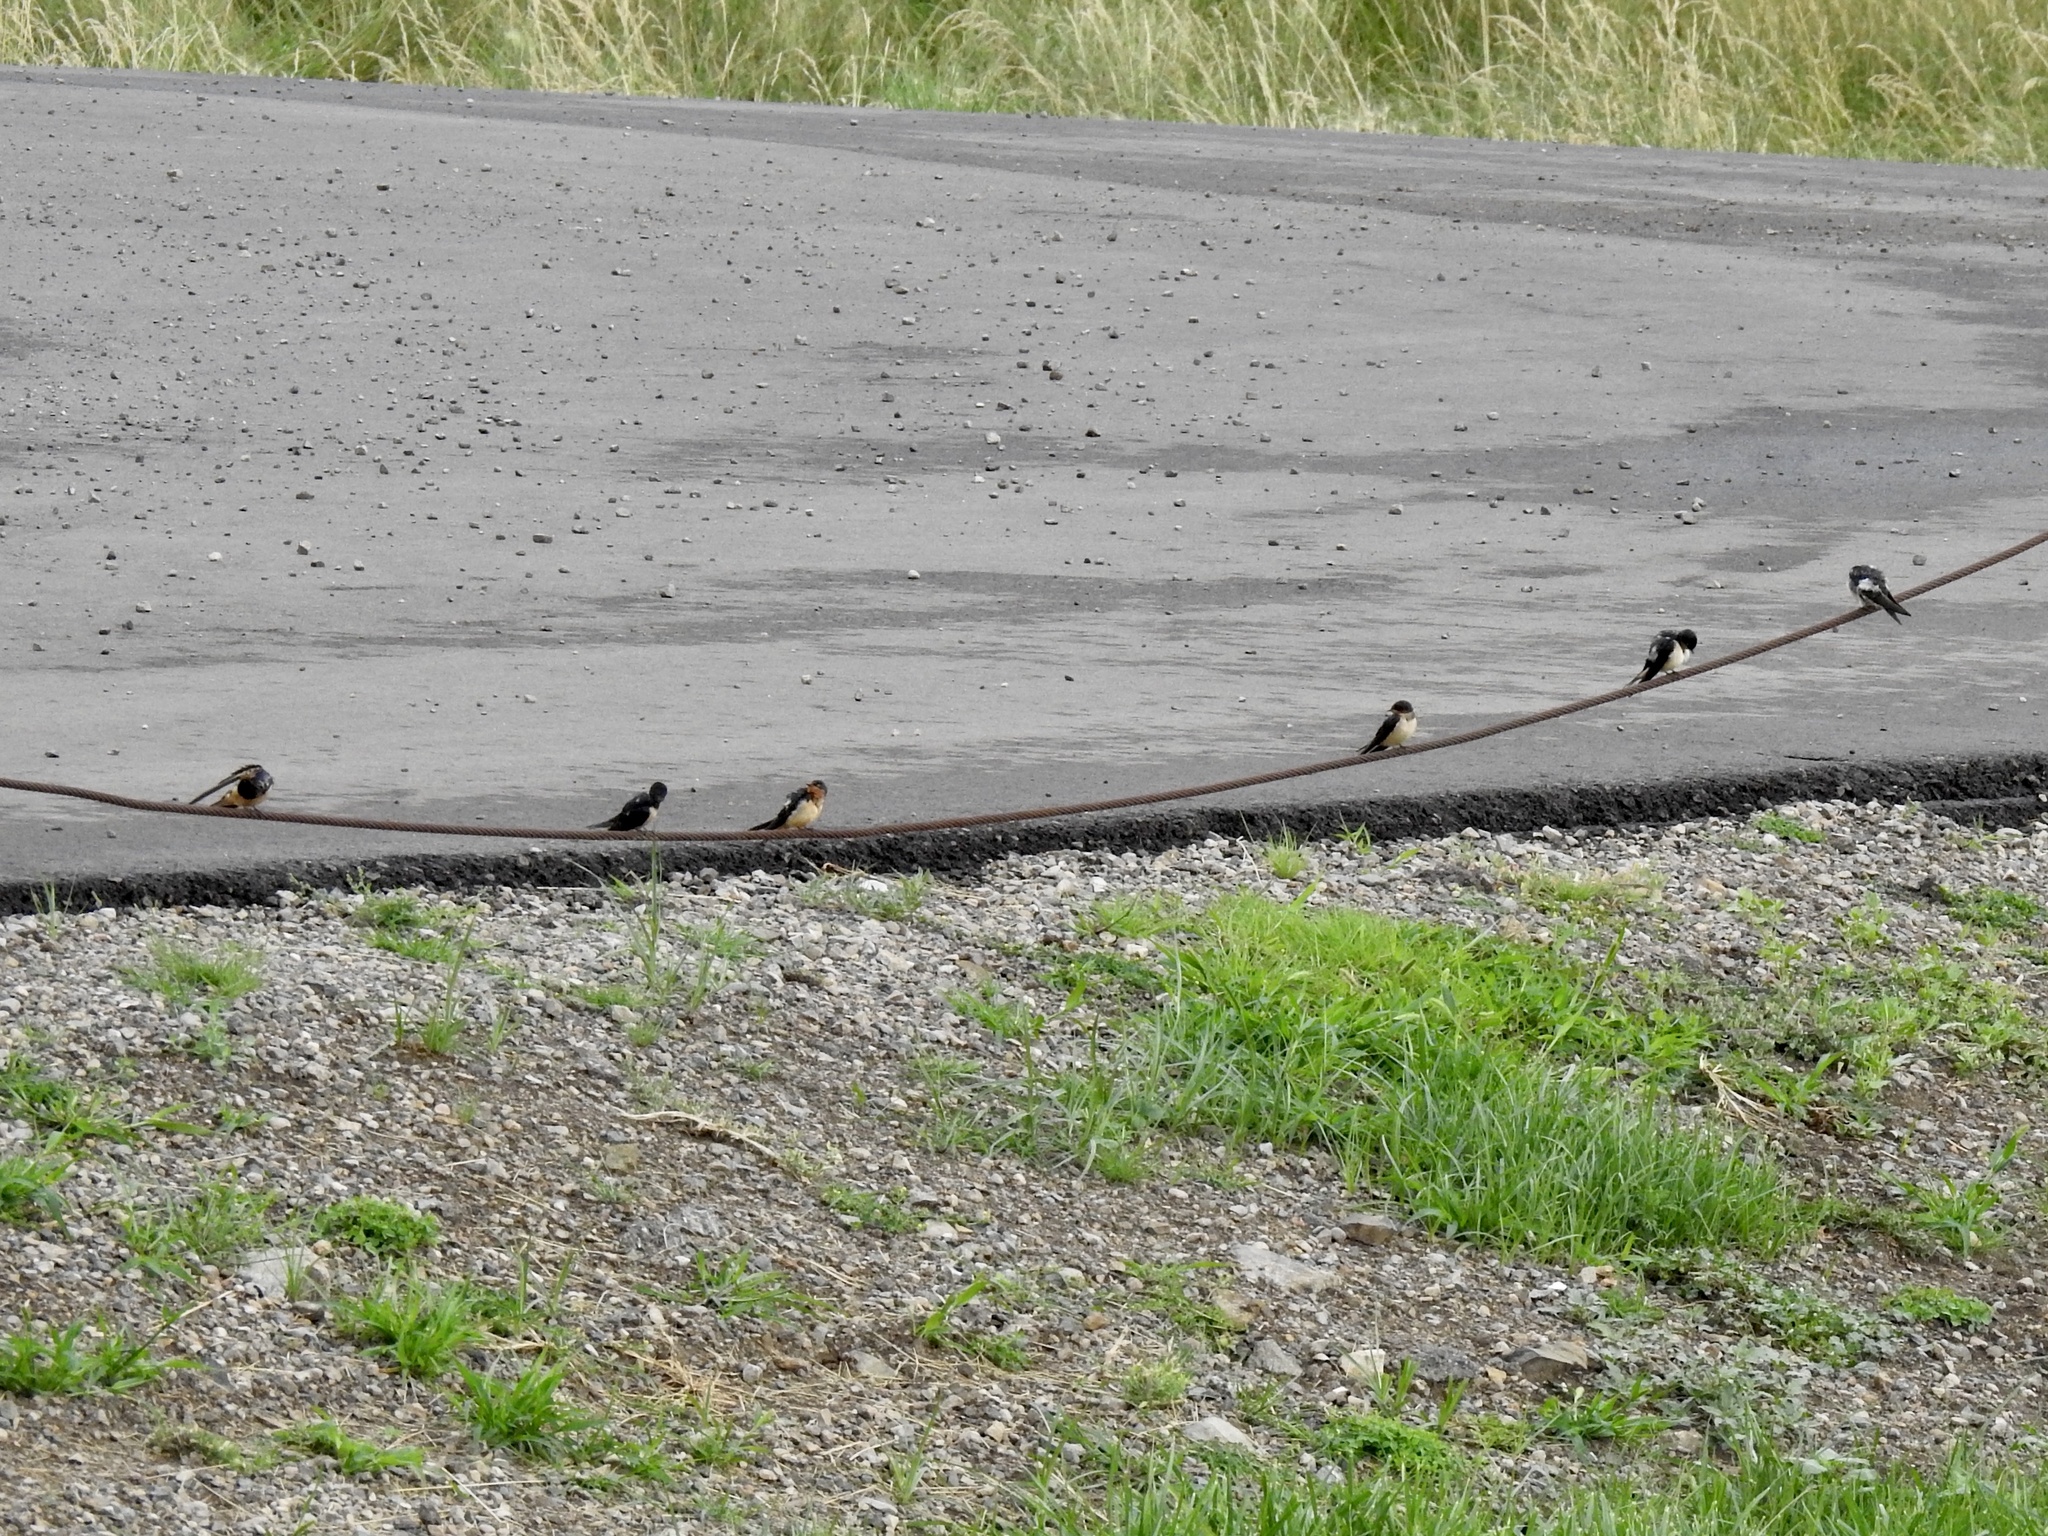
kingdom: Animalia
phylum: Chordata
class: Aves
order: Passeriformes
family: Hirundinidae
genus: Hirundo
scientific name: Hirundo rustica
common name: Barn swallow
